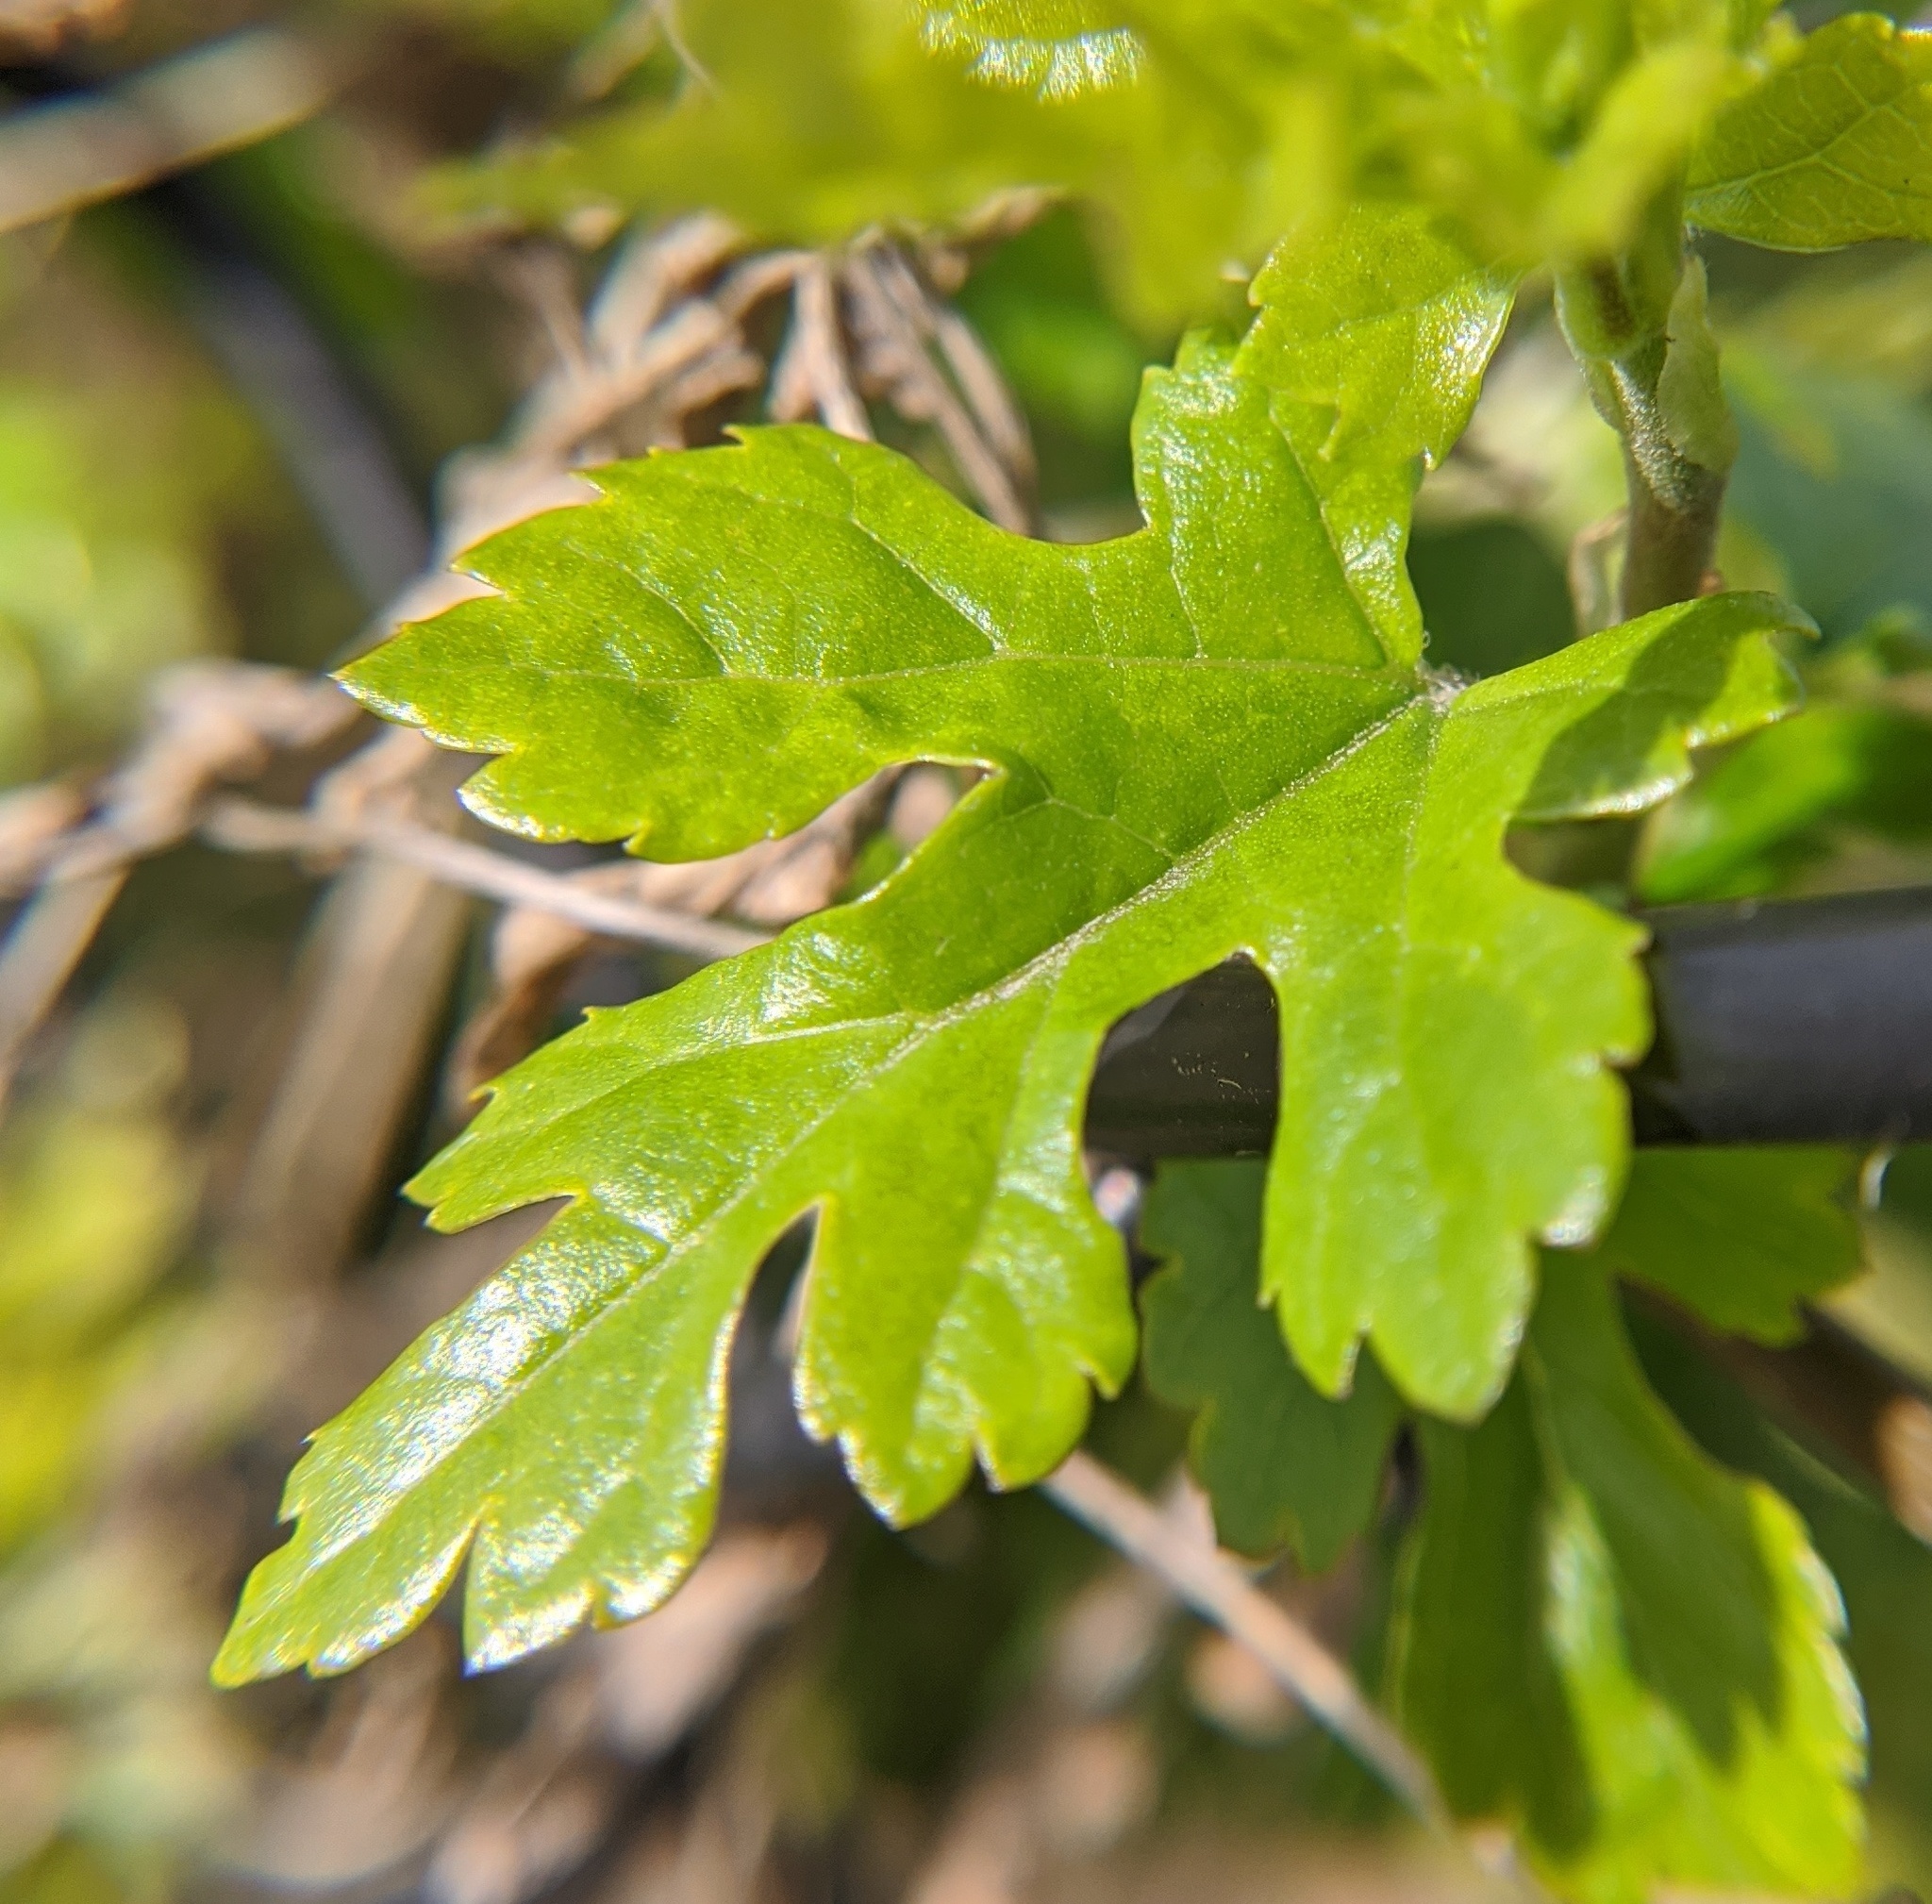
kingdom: Plantae
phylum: Tracheophyta
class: Magnoliopsida
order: Rosales
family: Moraceae
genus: Morus
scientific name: Morus alba
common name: White mulberry
